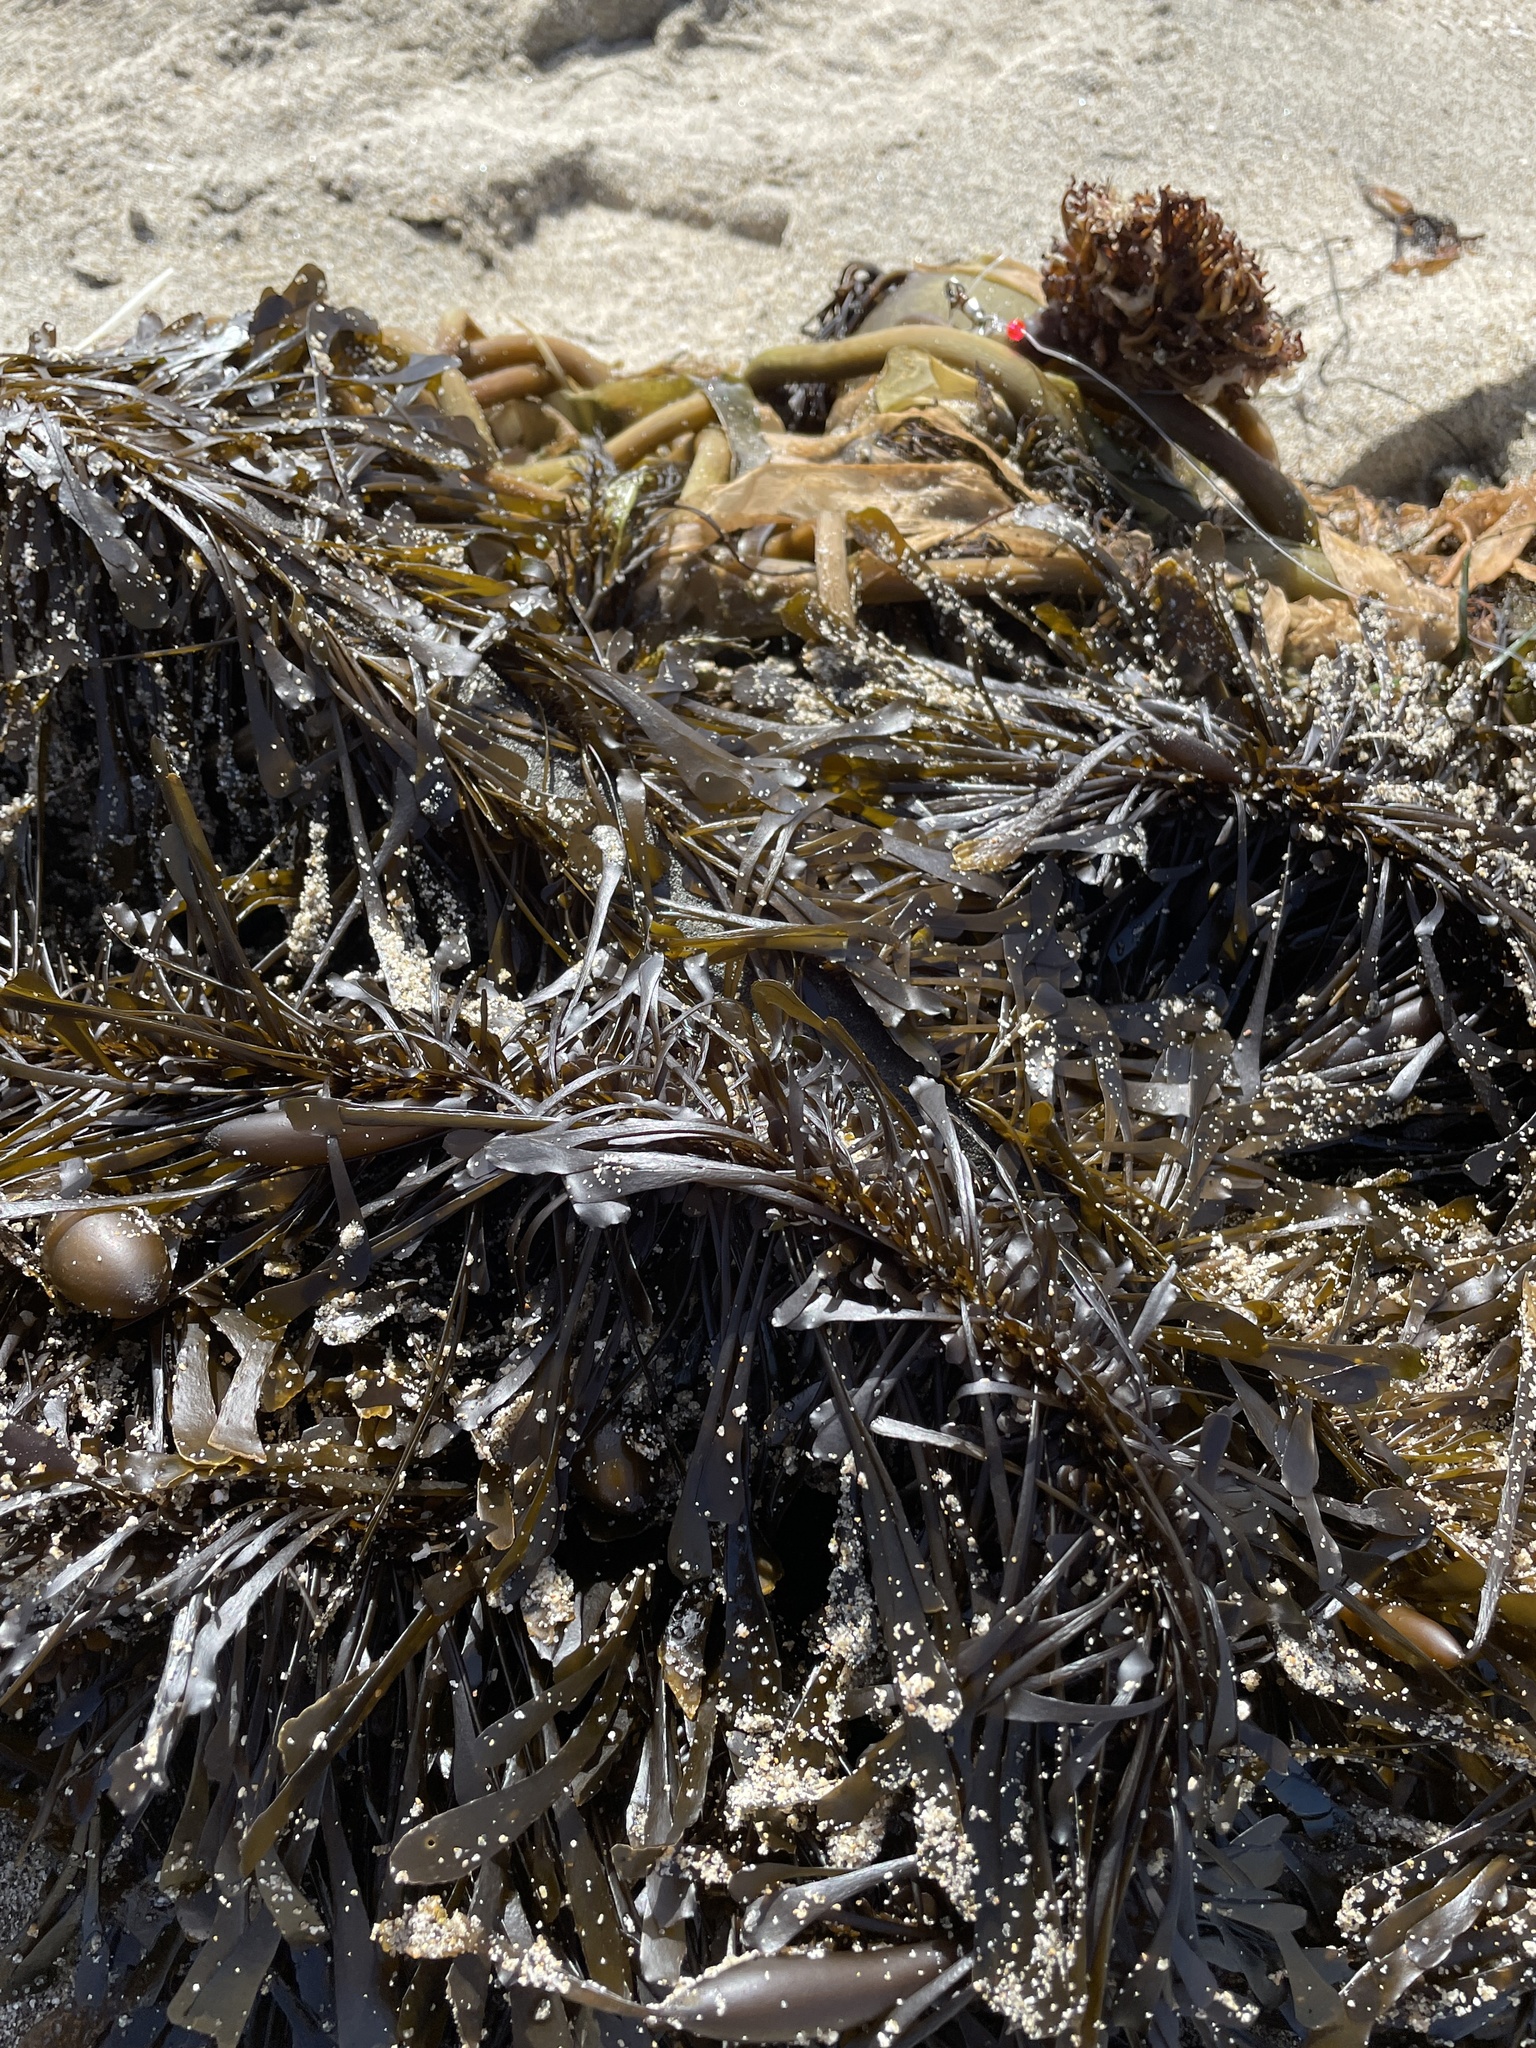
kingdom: Chromista
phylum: Ochrophyta
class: Phaeophyceae
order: Laminariales
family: Lessoniaceae
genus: Egregia
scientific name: Egregia menziesii
